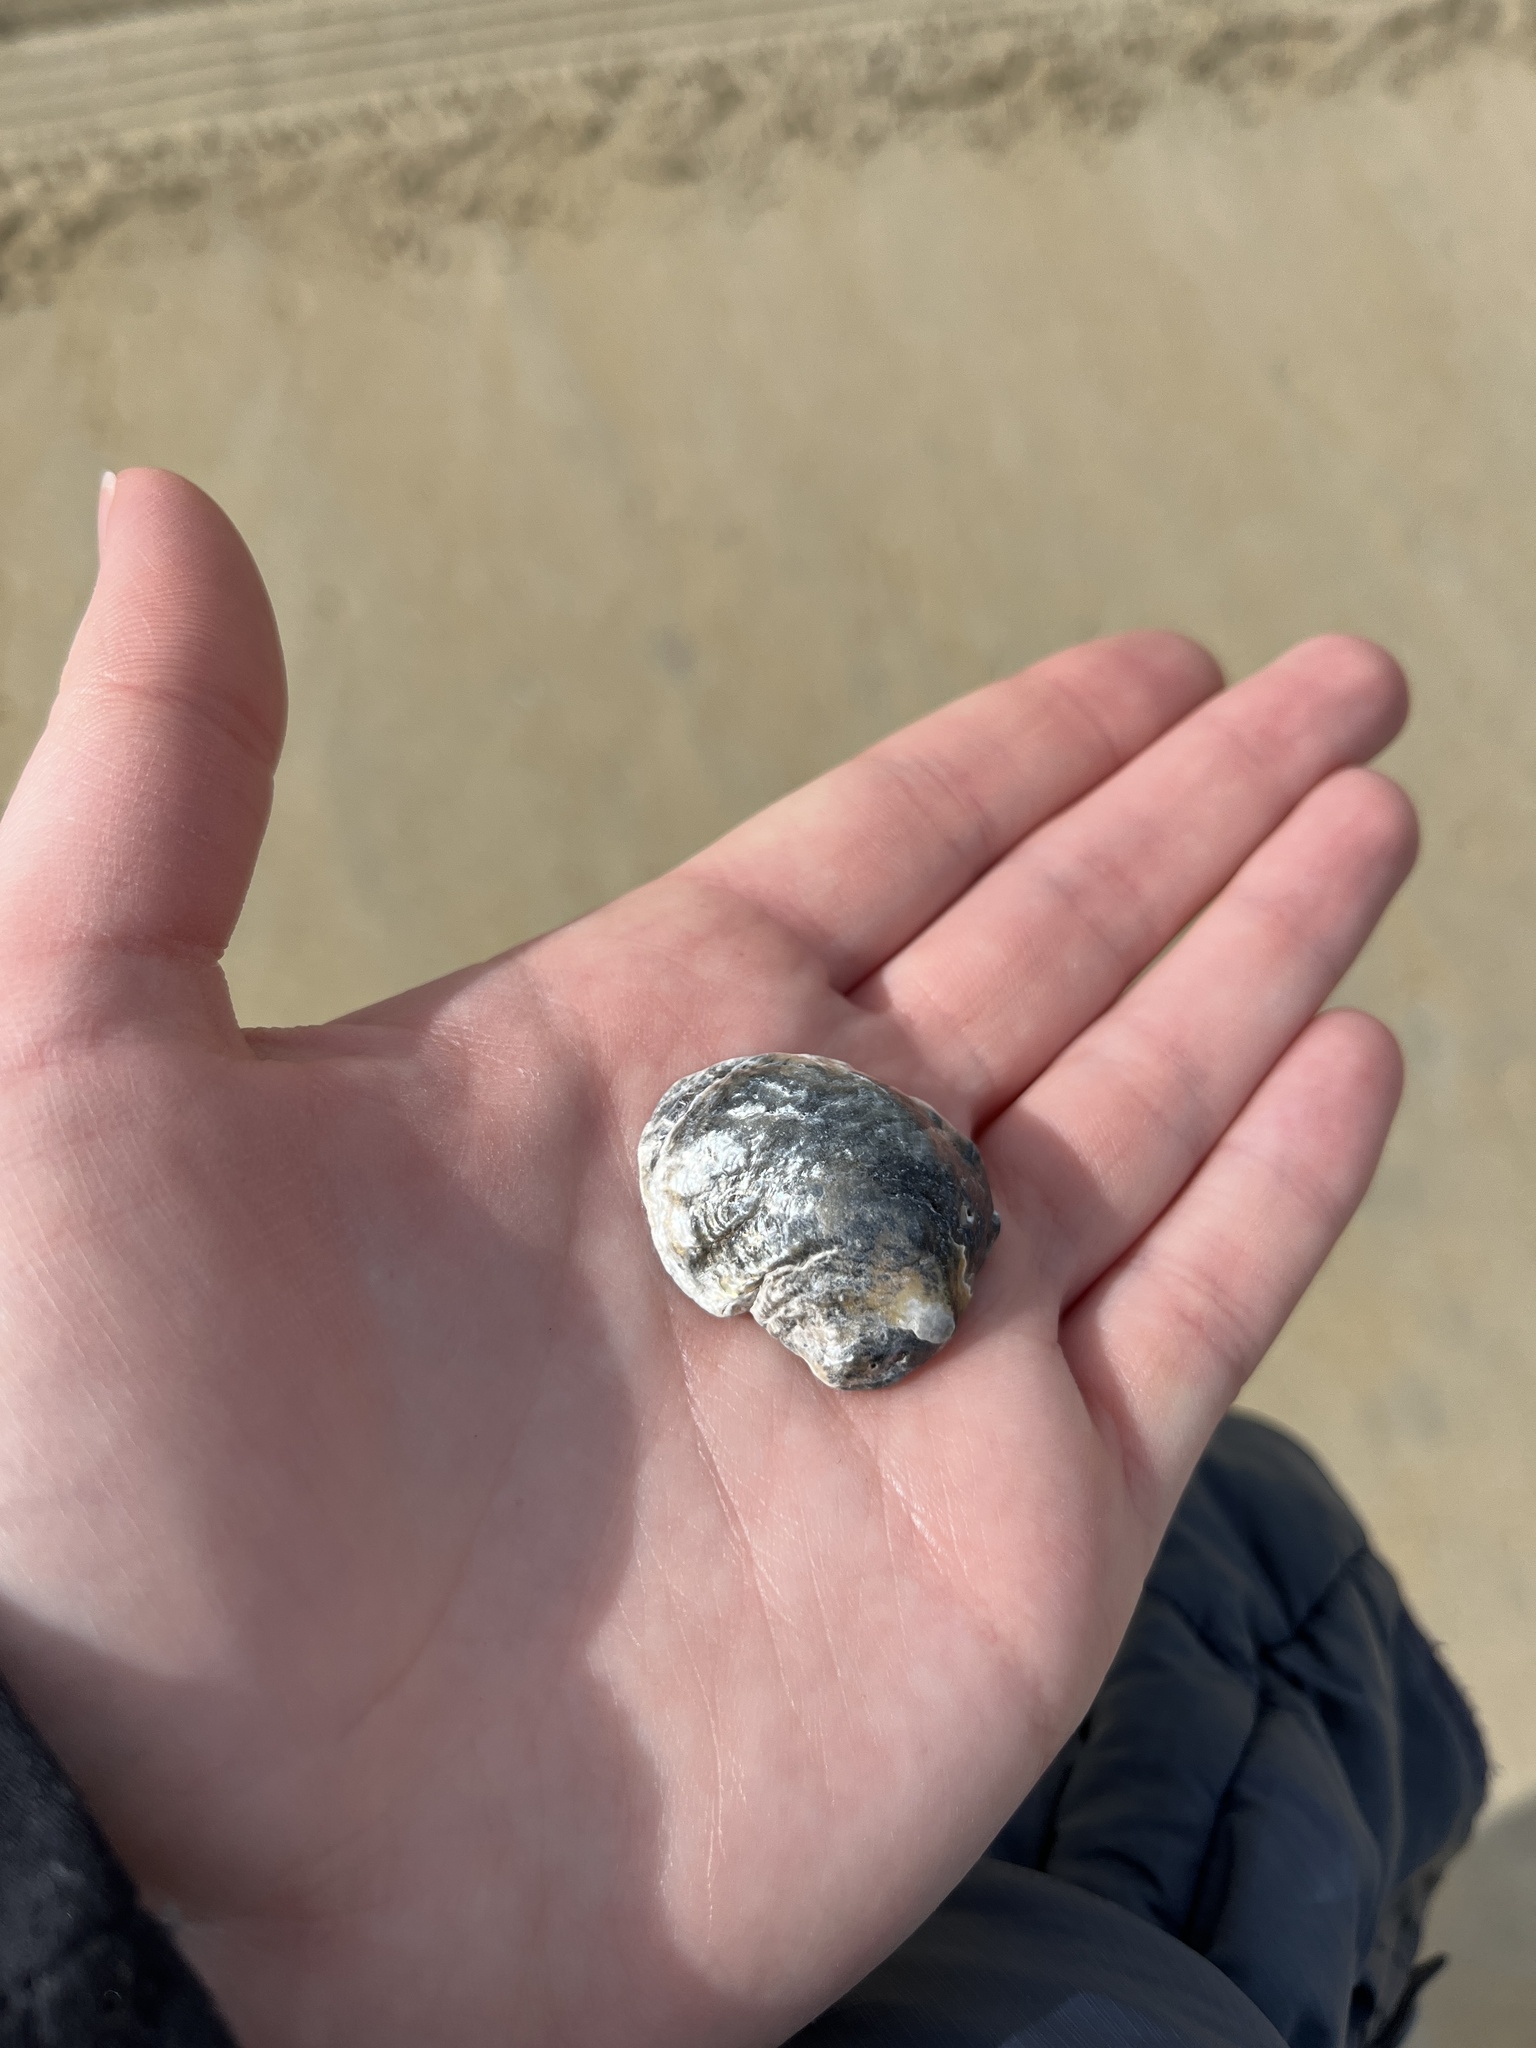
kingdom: Animalia
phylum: Mollusca
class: Bivalvia
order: Ostreida
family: Ostreidae
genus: Crassostrea
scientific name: Crassostrea virginica
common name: American oyster
